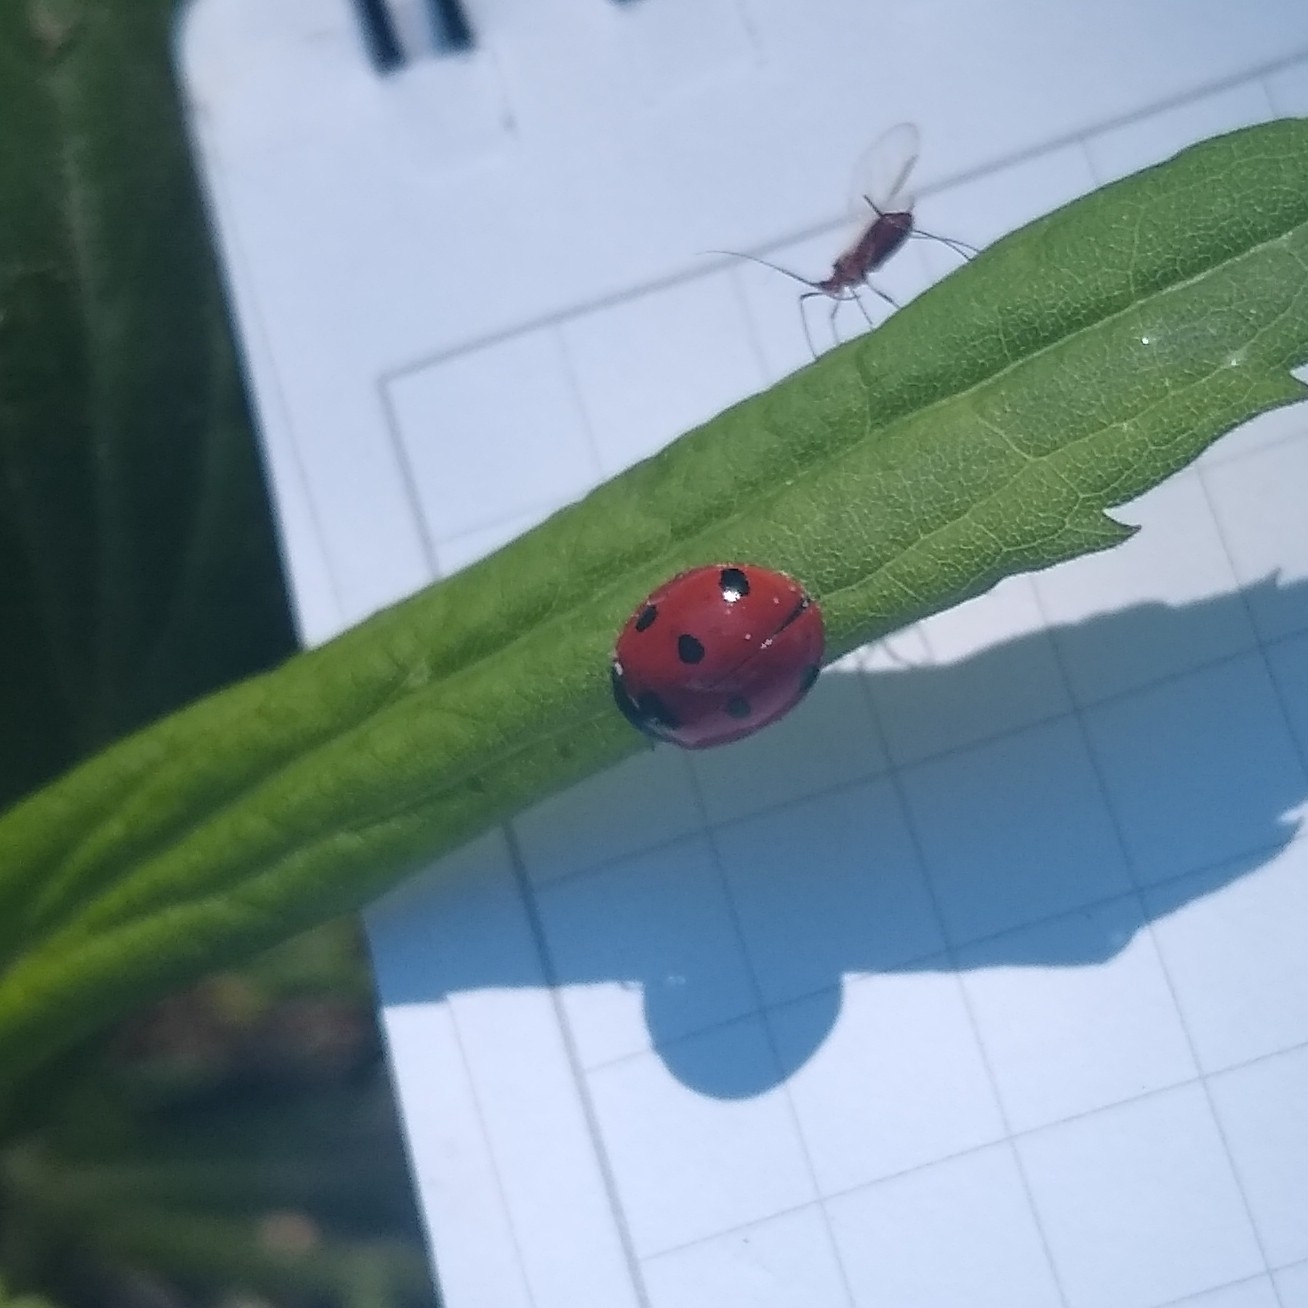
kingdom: Animalia
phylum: Arthropoda
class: Insecta
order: Coleoptera
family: Coccinellidae
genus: Coccinella
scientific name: Coccinella septempunctata
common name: Sevenspotted lady beetle
